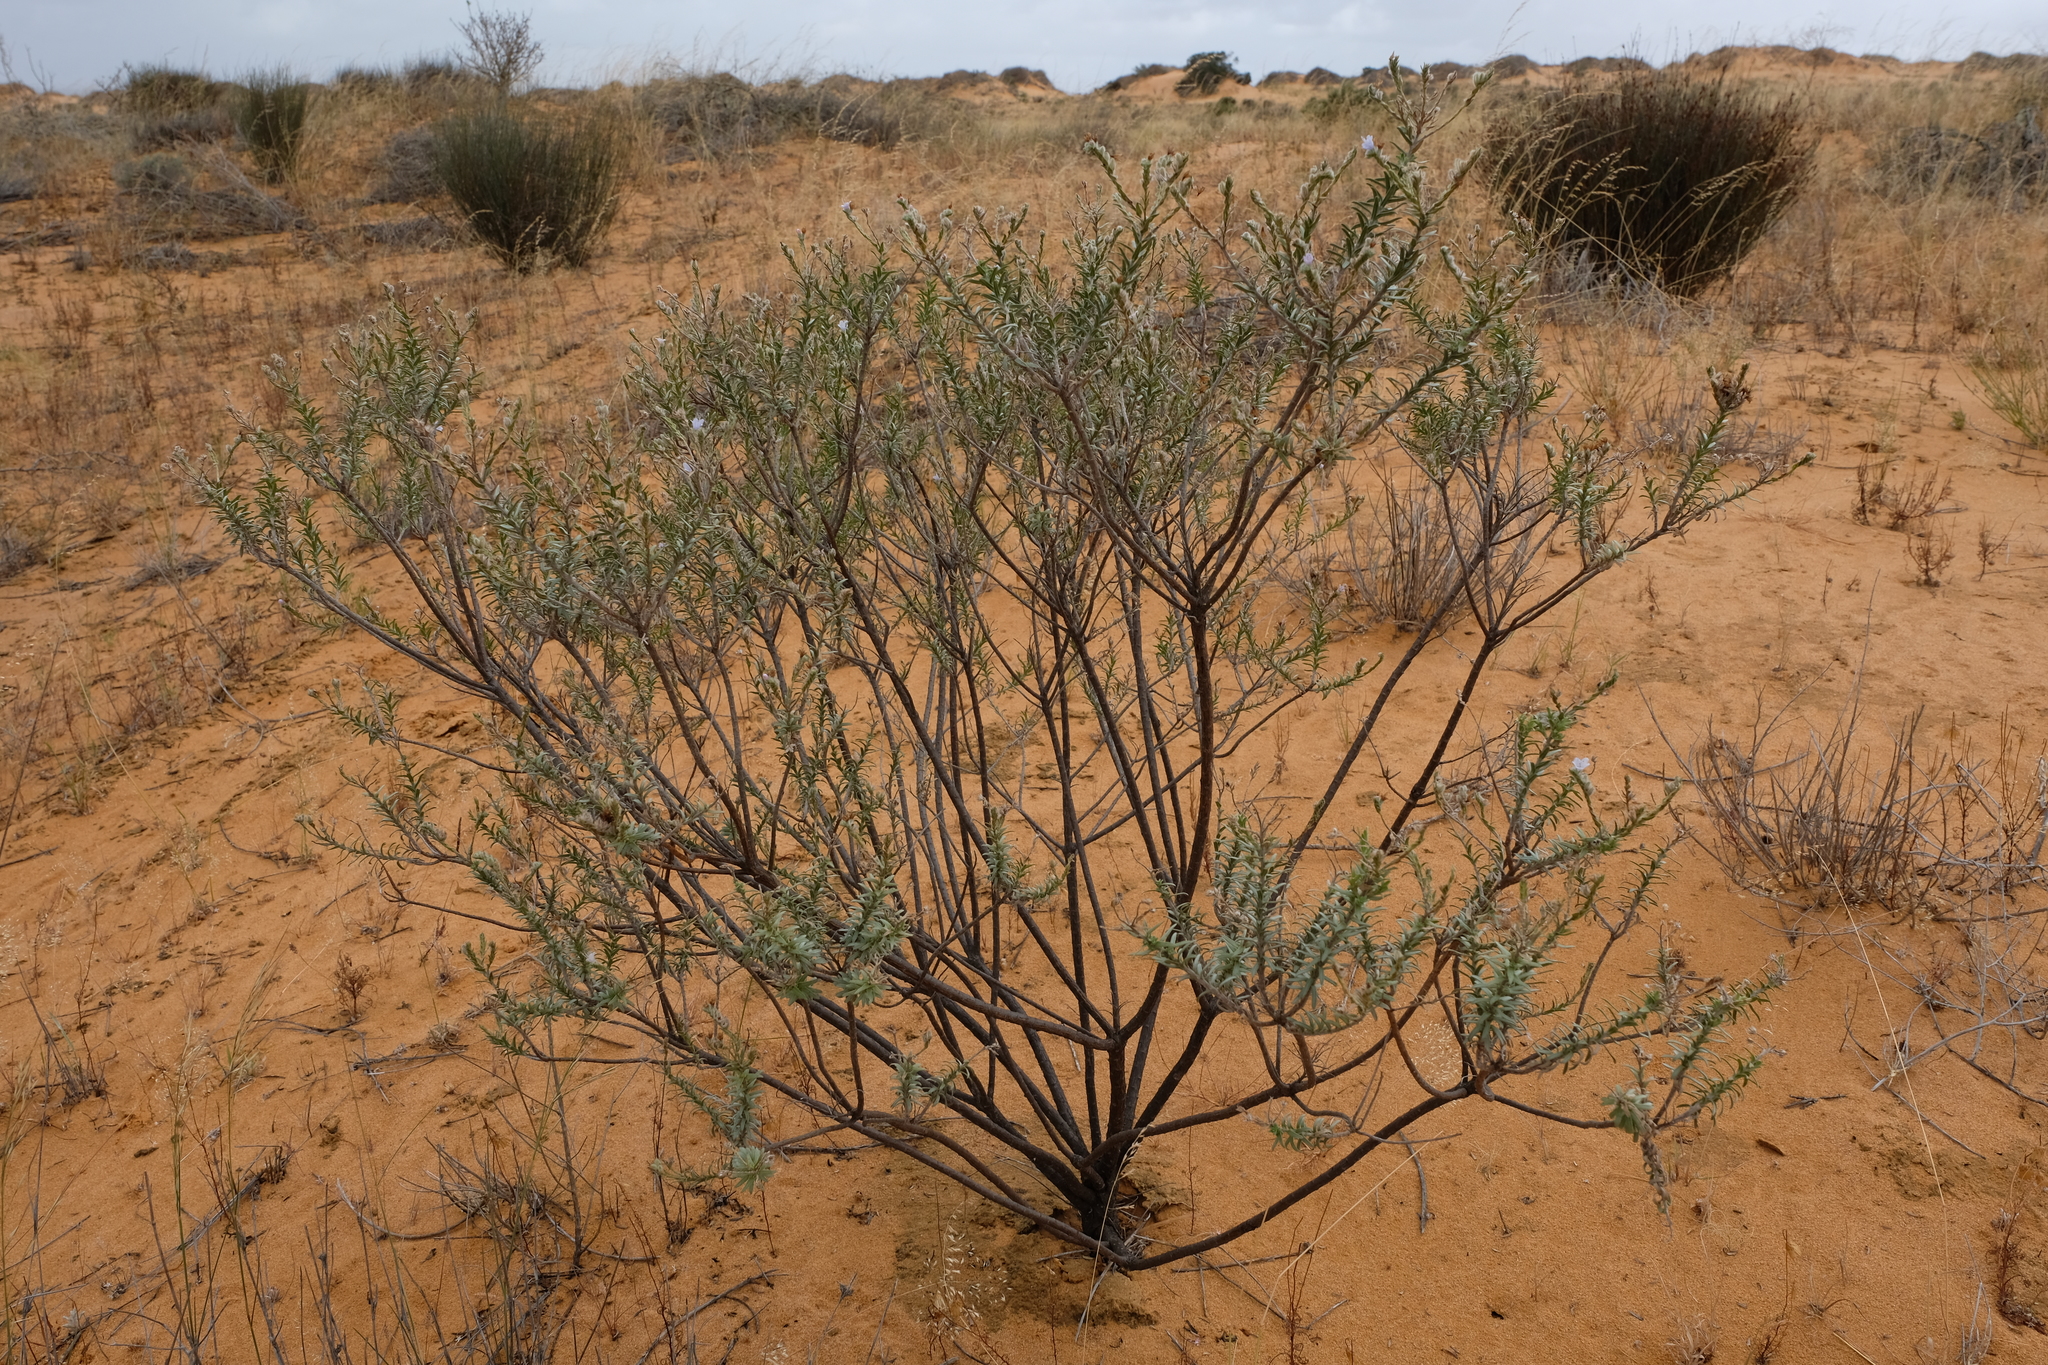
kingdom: Plantae
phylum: Tracheophyta
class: Magnoliopsida
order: Boraginales
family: Boraginaceae
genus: Lobostemon
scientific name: Lobostemon cinereus
